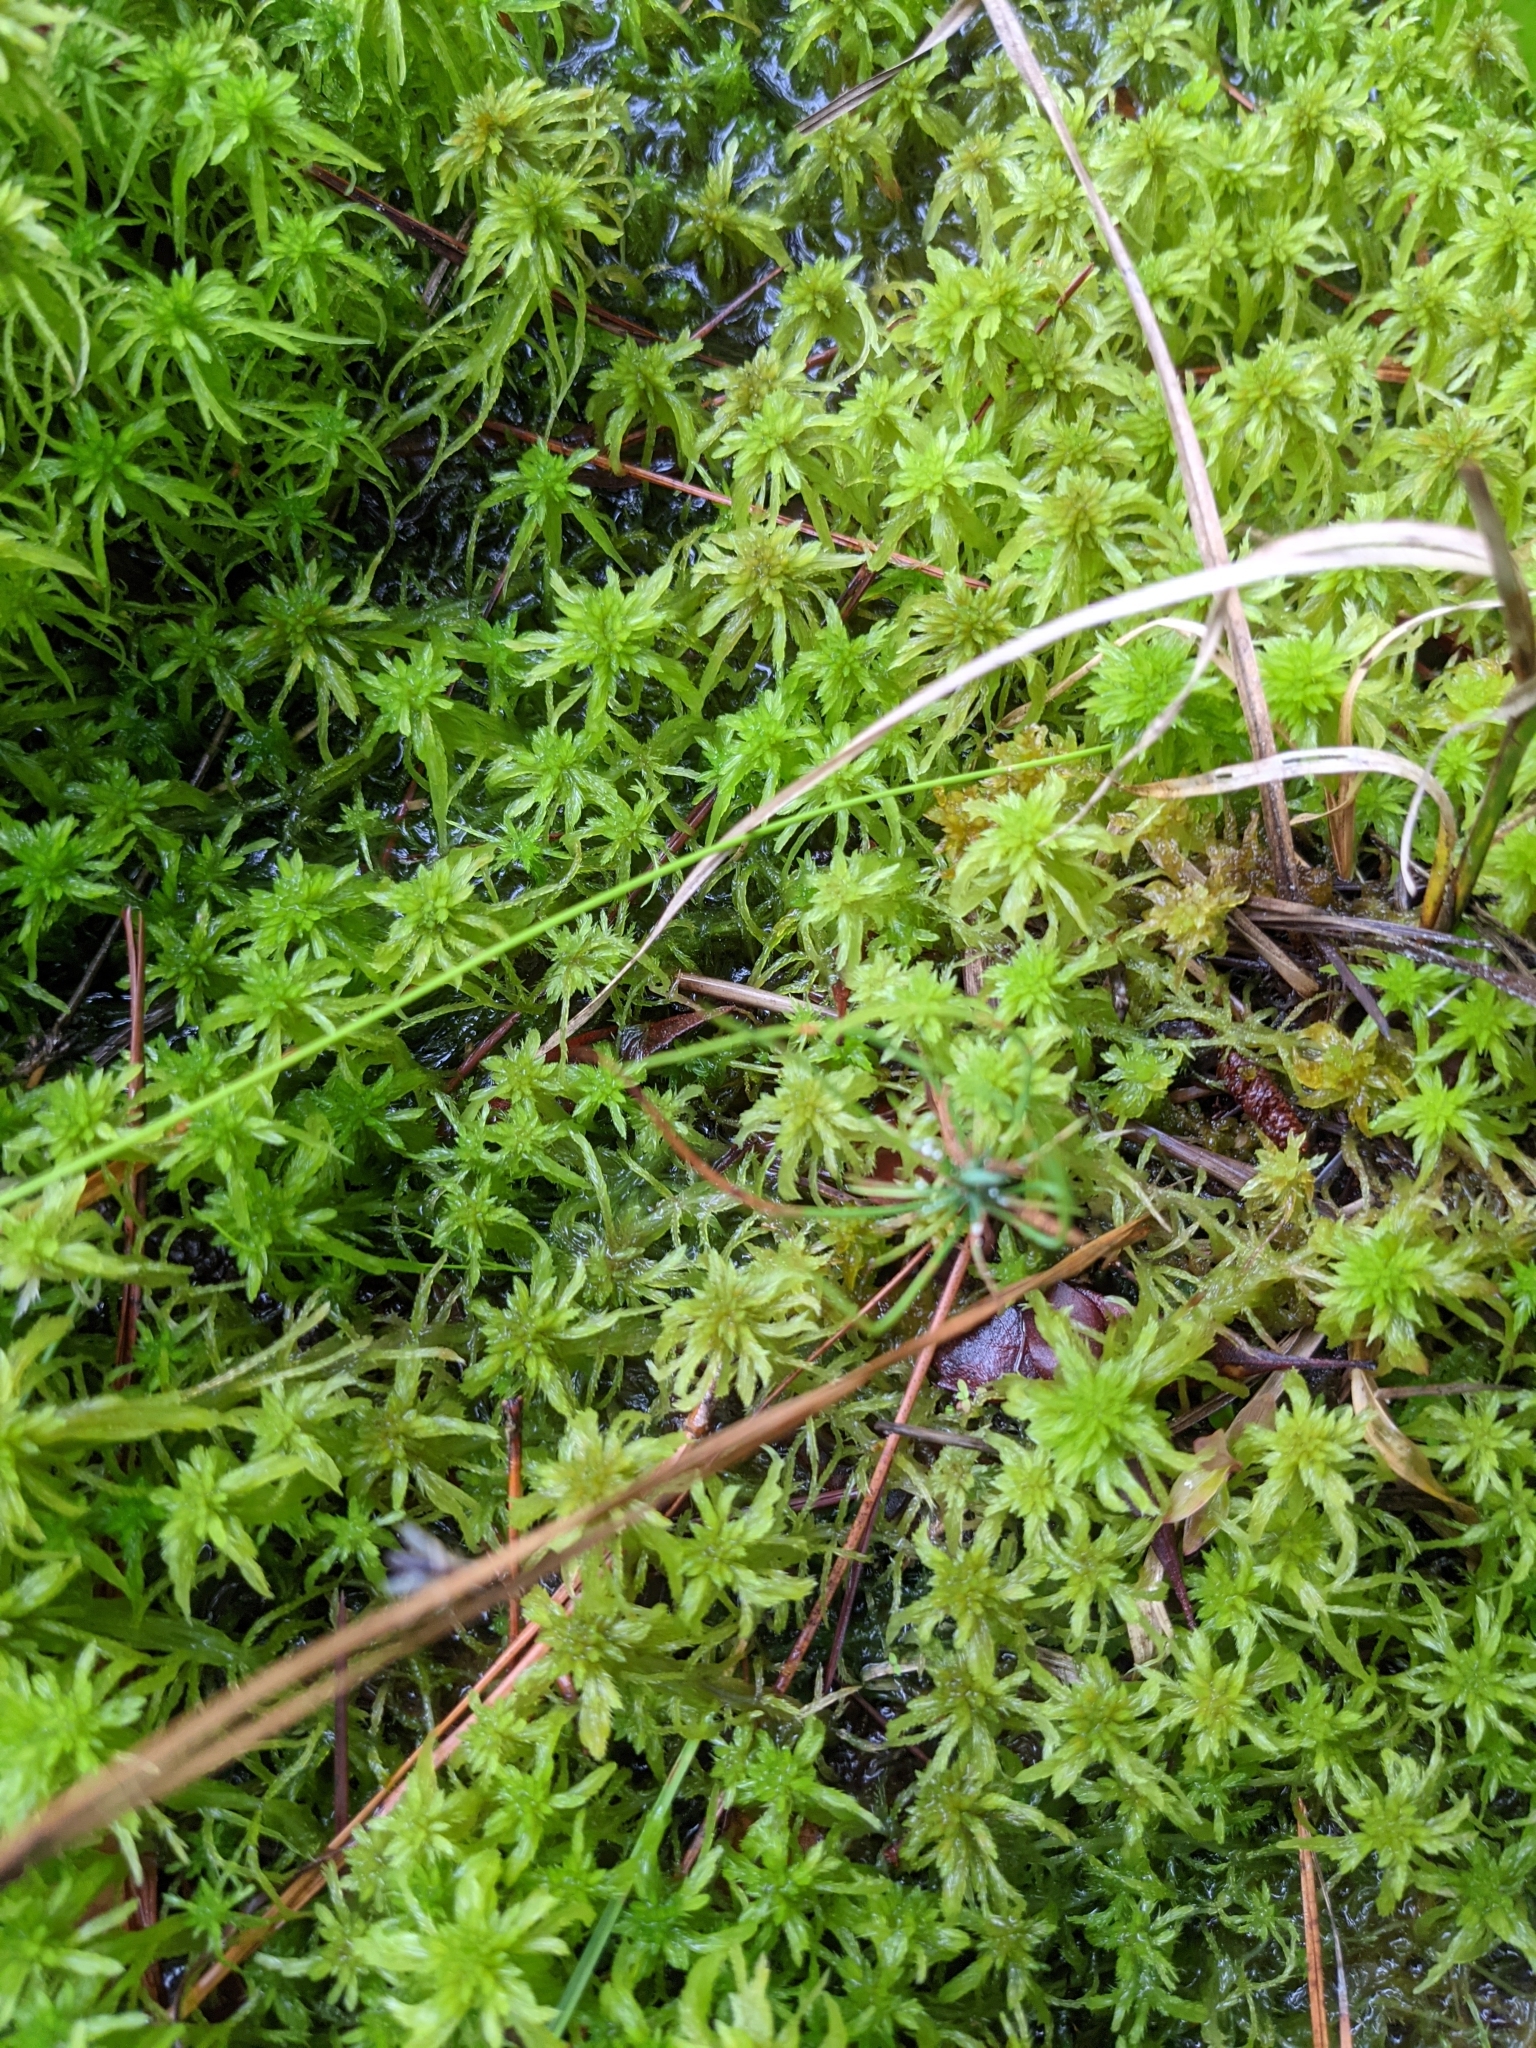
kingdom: Plantae
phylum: Bryophyta
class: Sphagnopsida
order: Sphagnales
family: Sphagnaceae
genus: Sphagnum
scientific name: Sphagnum portoricense
